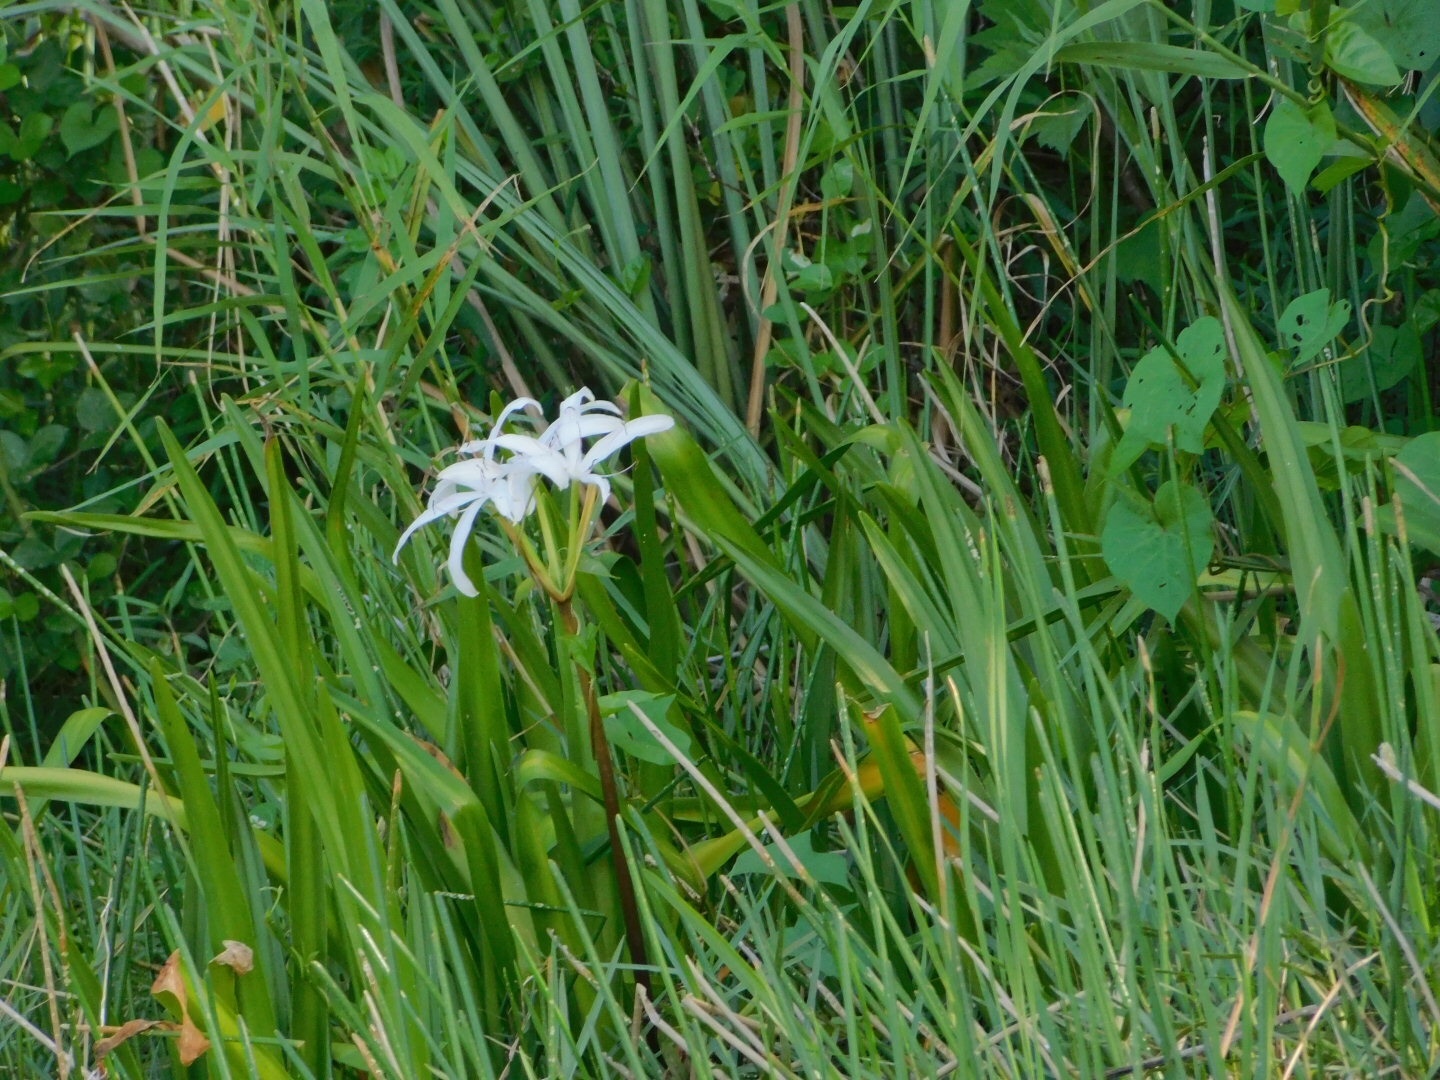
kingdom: Plantae
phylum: Tracheophyta
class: Liliopsida
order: Asparagales
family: Amaryllidaceae
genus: Crinum
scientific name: Crinum americanum
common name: Florida swamp-lily
